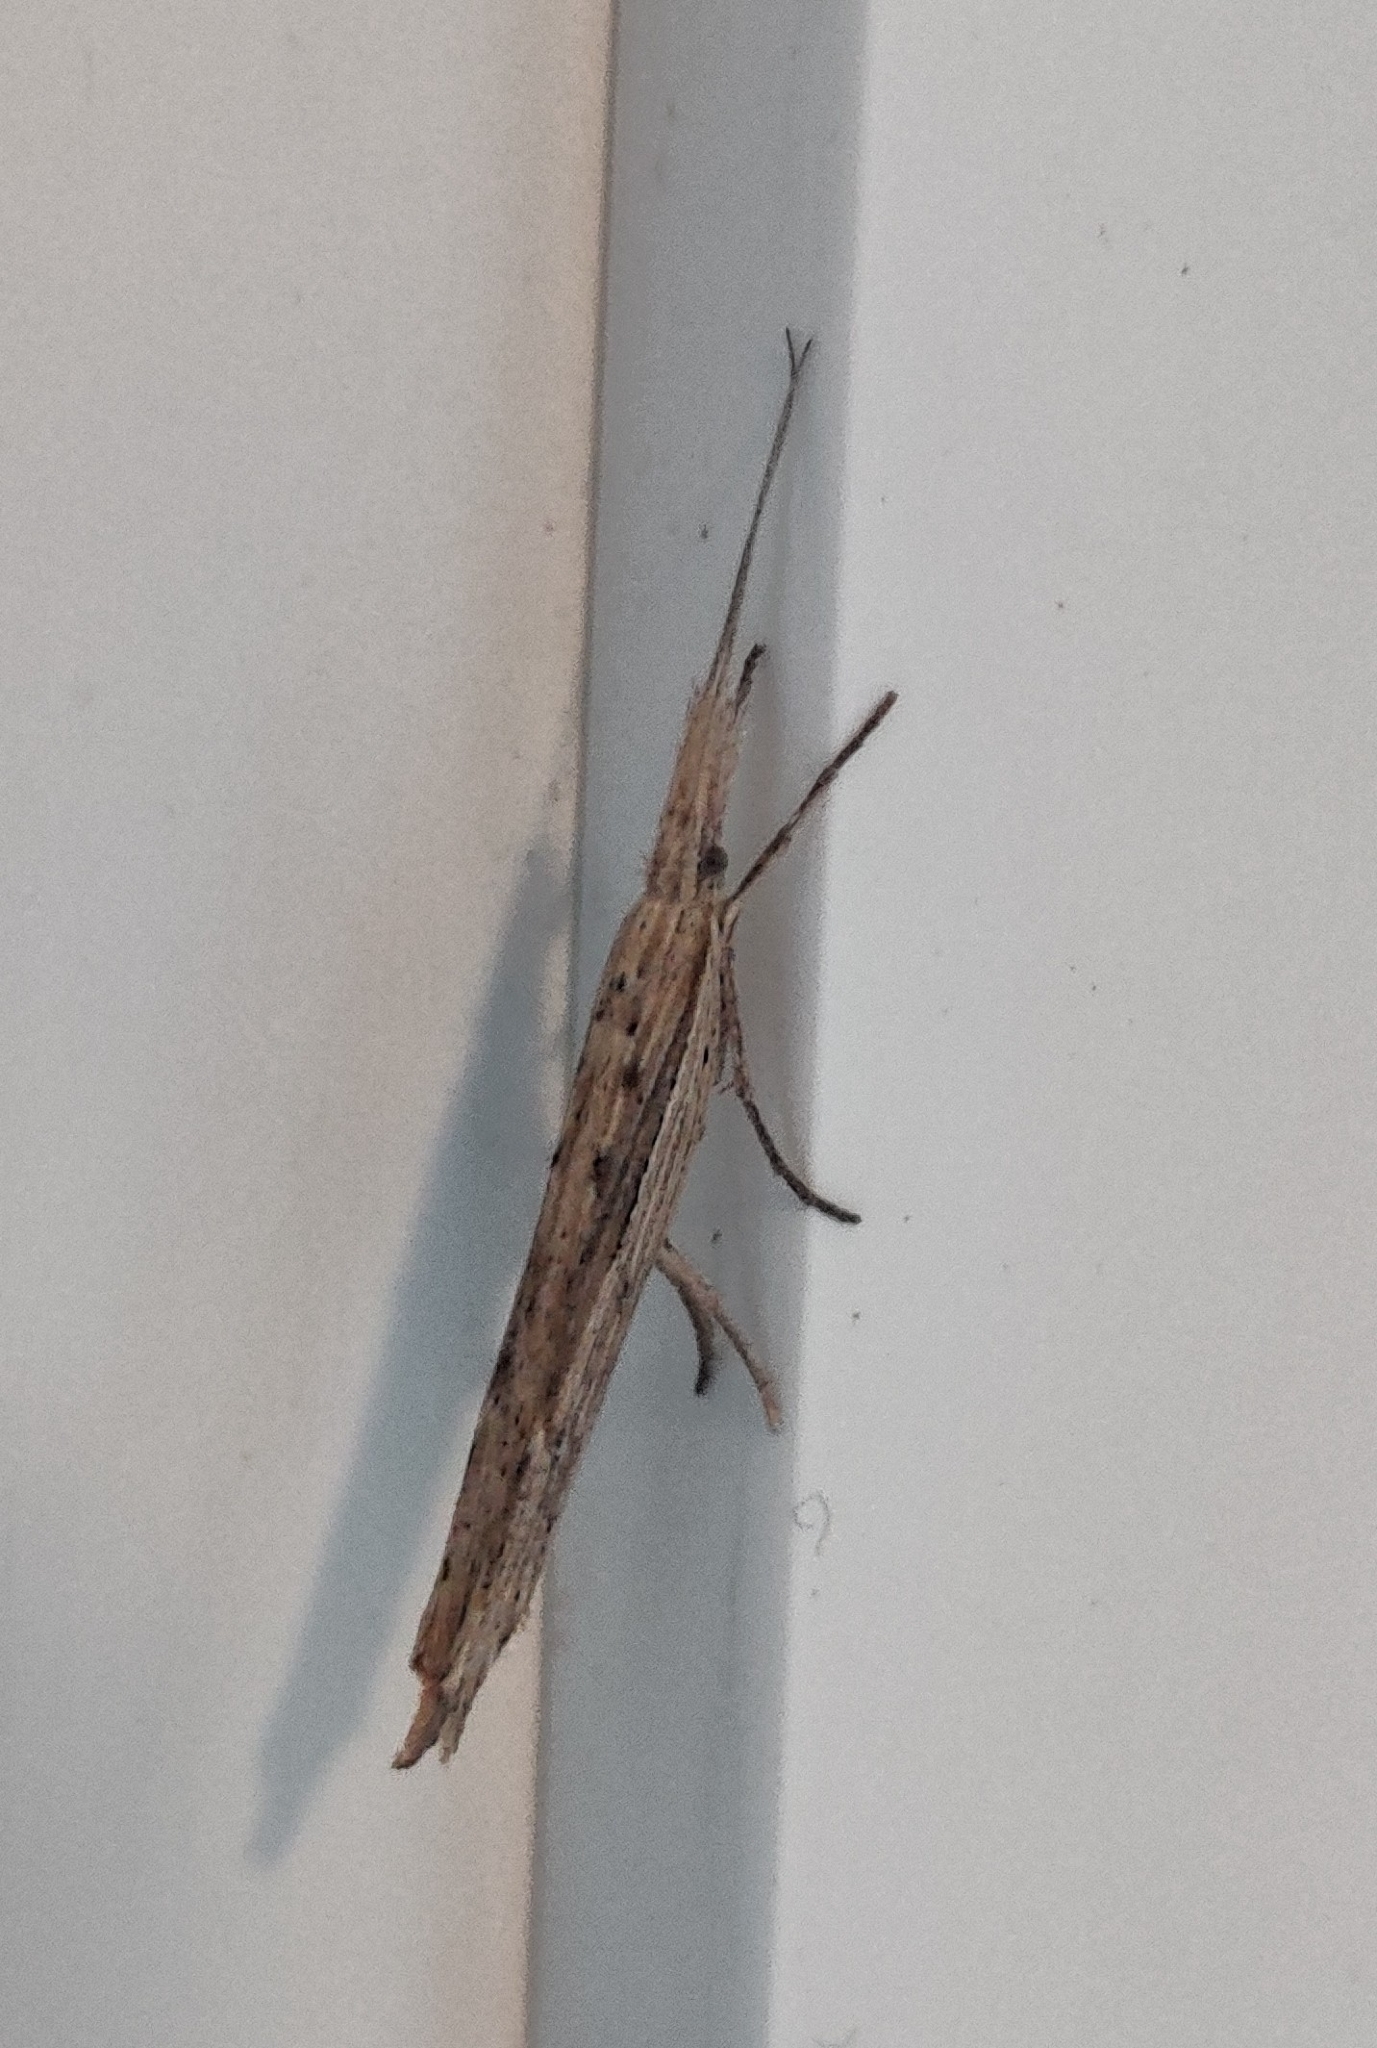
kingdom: Animalia
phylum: Arthropoda
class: Insecta
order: Lepidoptera
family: Ypsolophidae
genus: Ypsolopha
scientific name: Ypsolopha mucronella
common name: Spindle smudge
